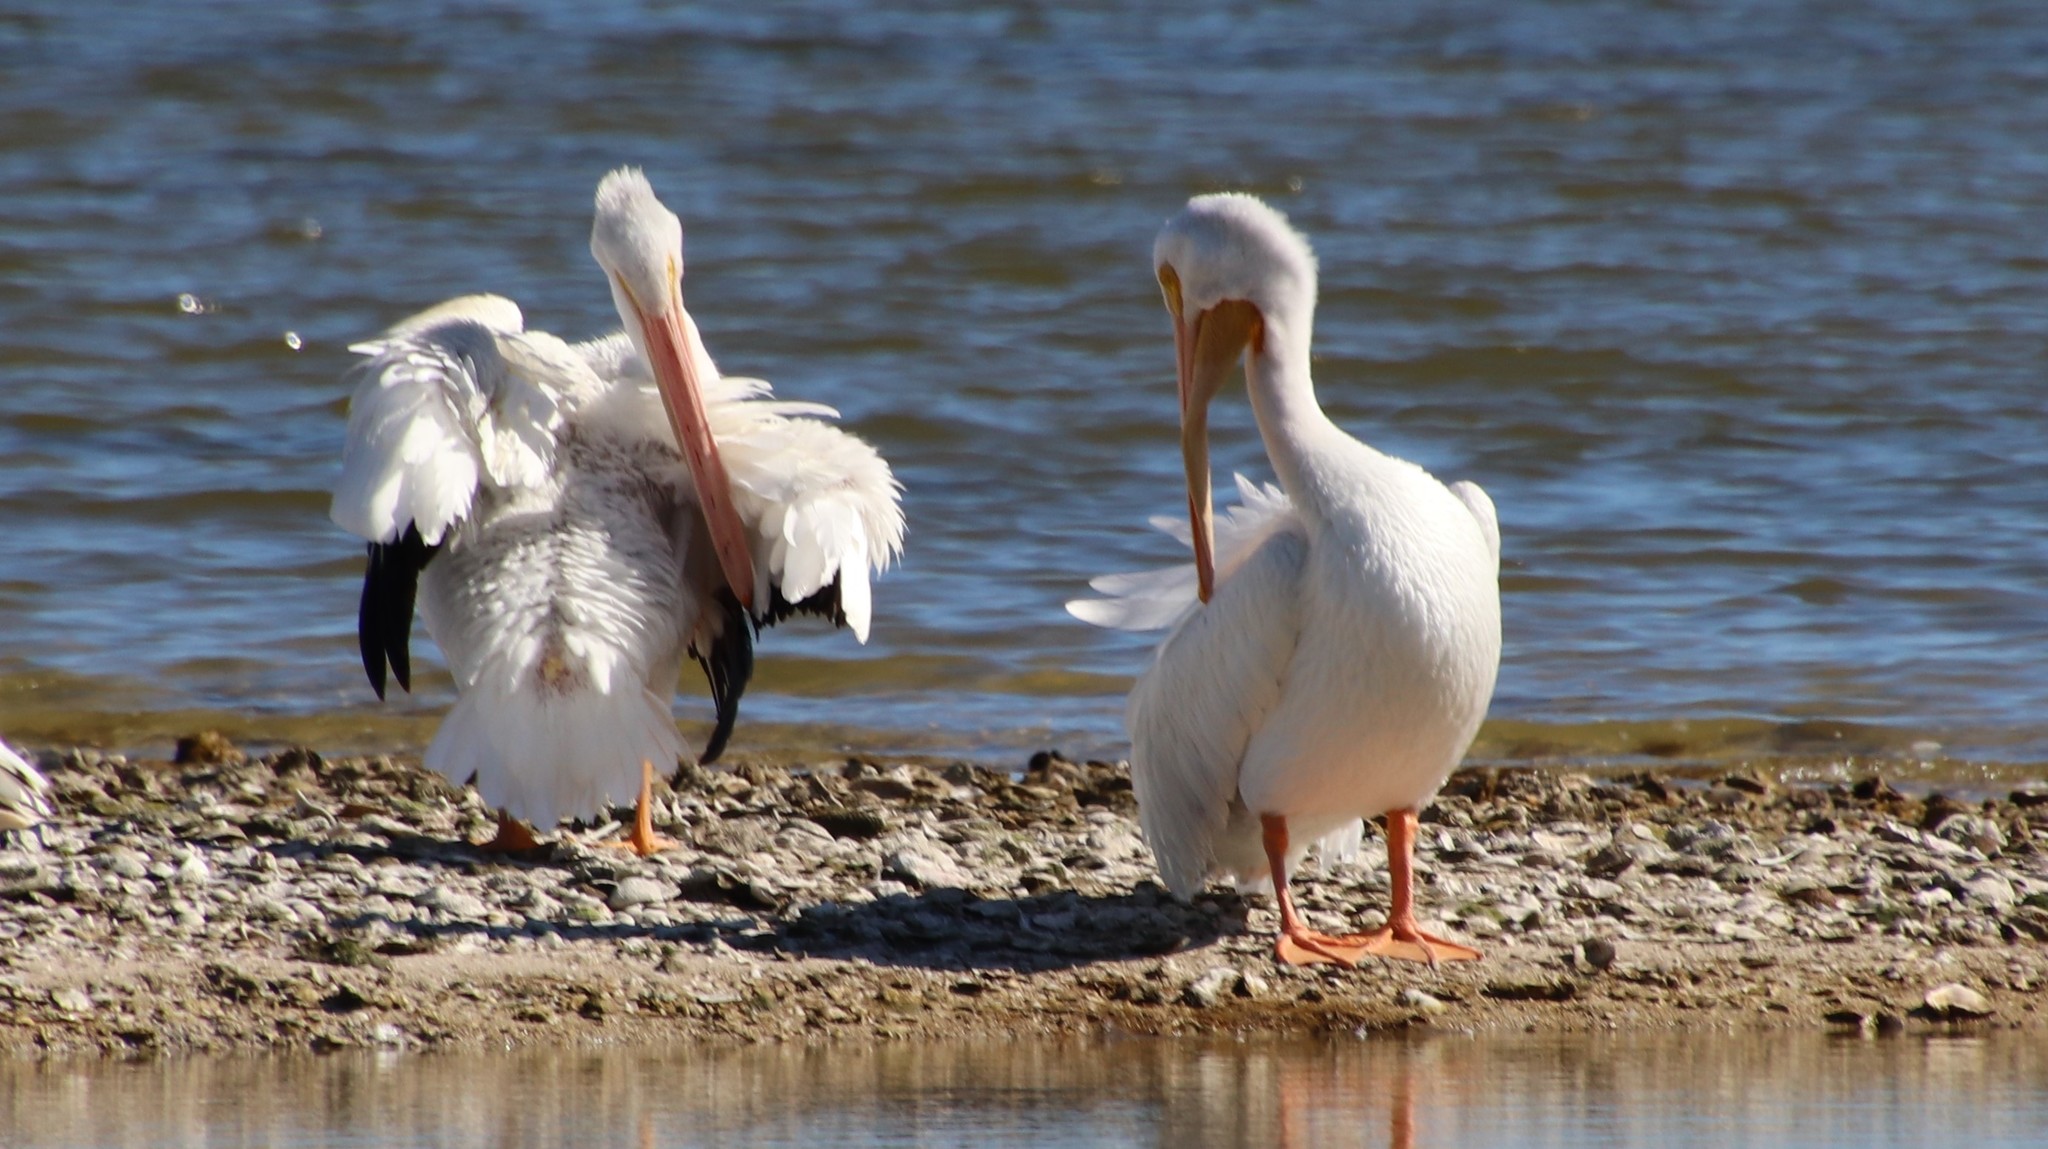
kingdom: Animalia
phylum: Chordata
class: Aves
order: Pelecaniformes
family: Pelecanidae
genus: Pelecanus
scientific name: Pelecanus erythrorhynchos
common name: American white pelican
